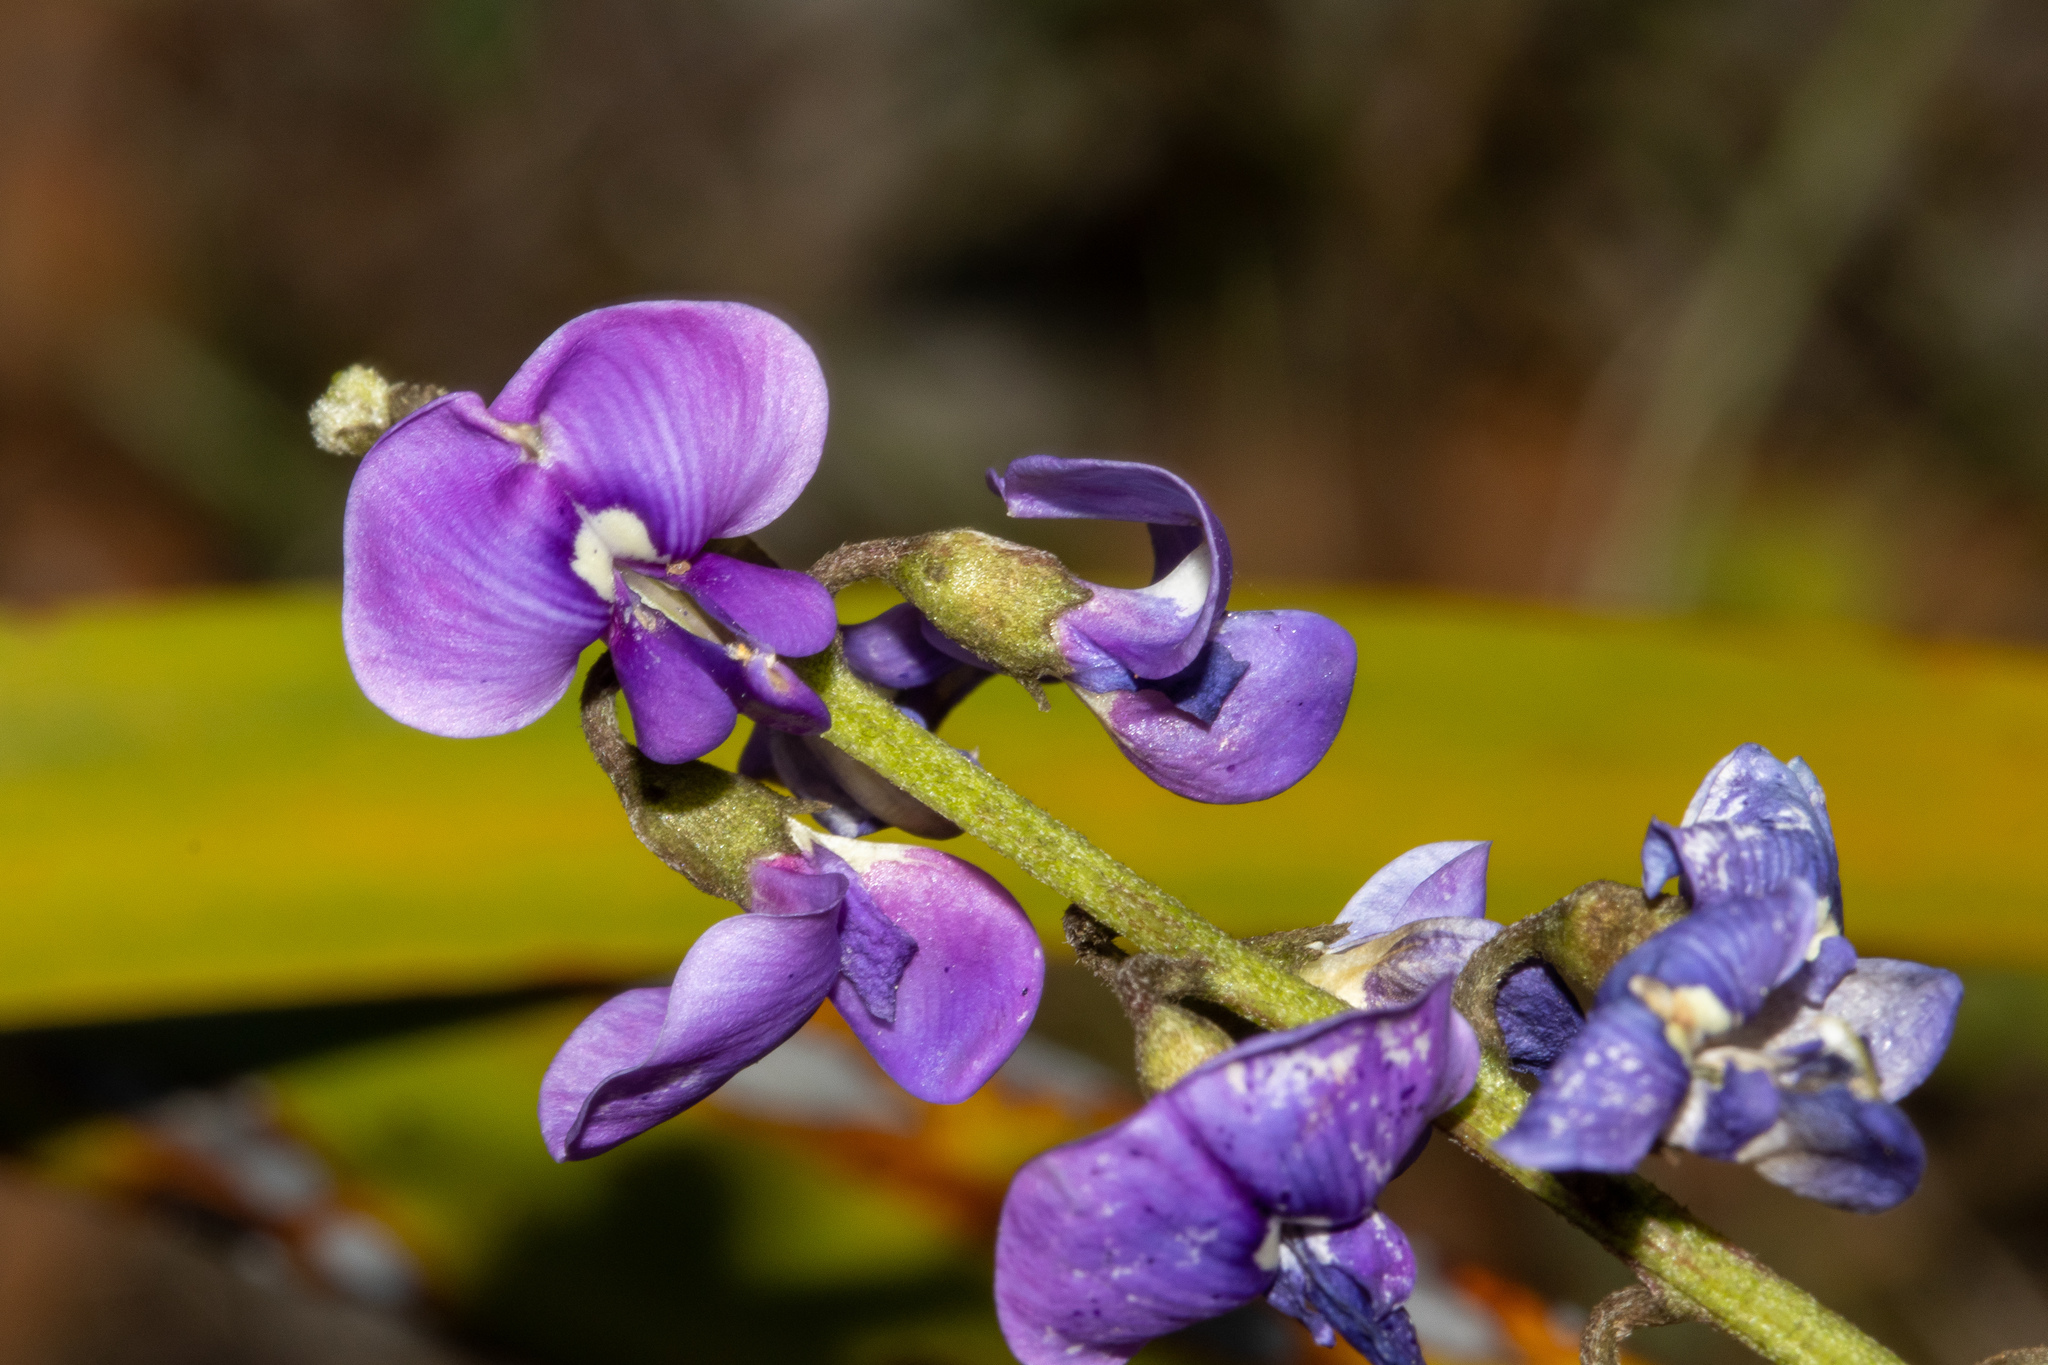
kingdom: Plantae
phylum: Tracheophyta
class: Magnoliopsida
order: Fabales
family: Fabaceae
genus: Swainsona
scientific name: Swainsona lessertiifolia
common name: Bog-pea
